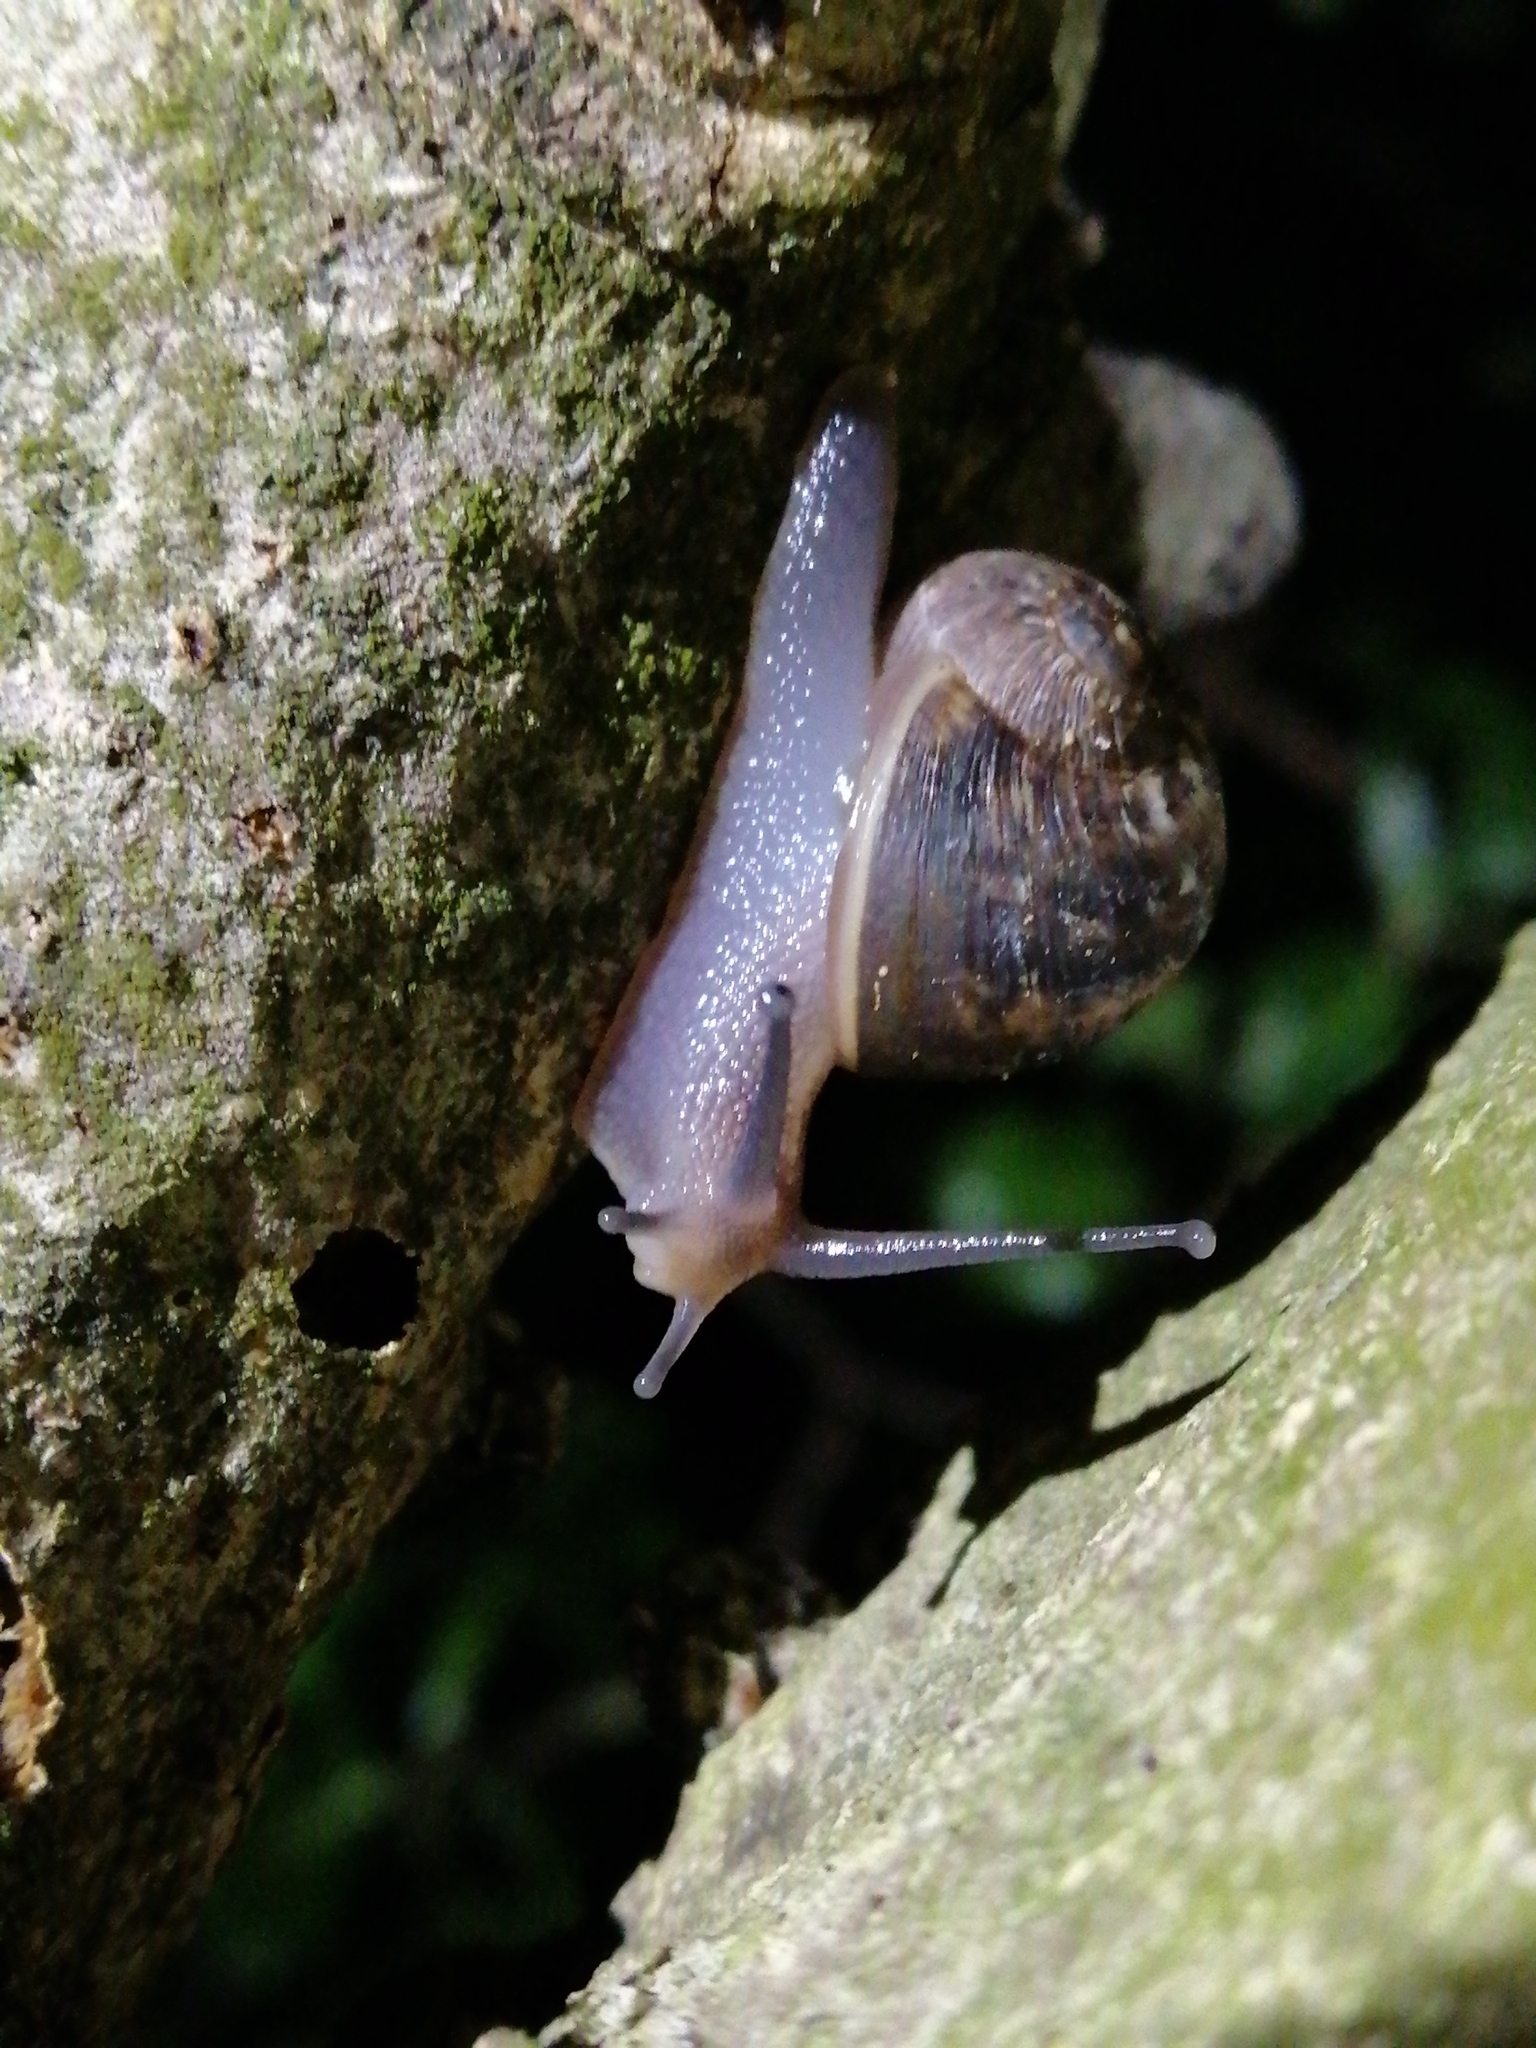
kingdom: Animalia
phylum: Mollusca
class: Gastropoda
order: Stylommatophora
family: Helicidae
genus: Cornu
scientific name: Cornu aspersum
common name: Brown garden snail
